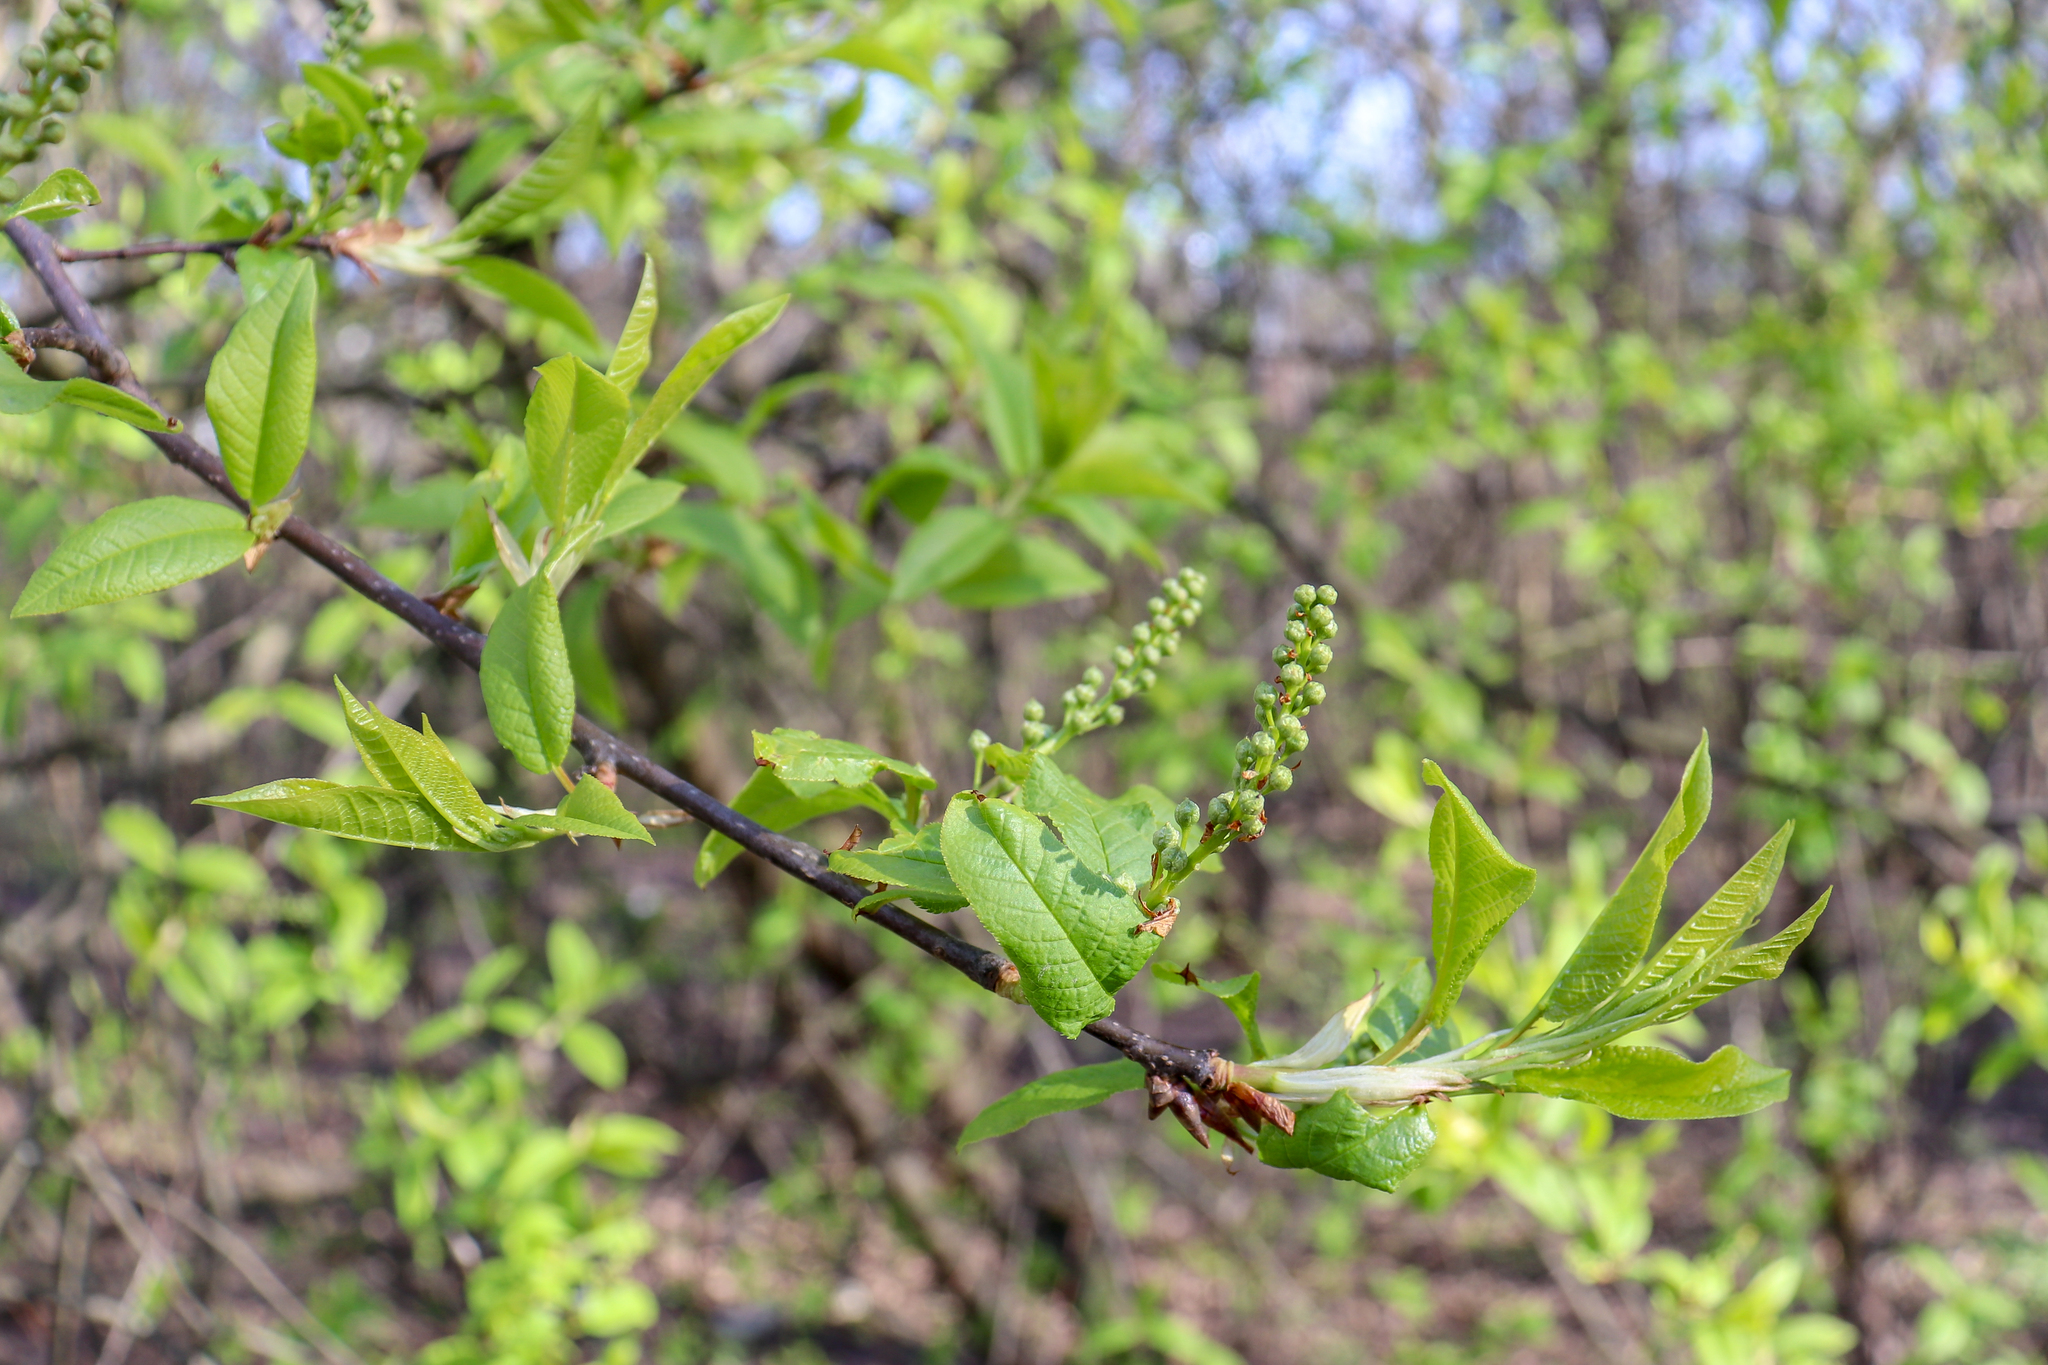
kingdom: Plantae
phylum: Tracheophyta
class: Magnoliopsida
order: Rosales
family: Rosaceae
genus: Prunus
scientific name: Prunus padus
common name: Bird cherry
